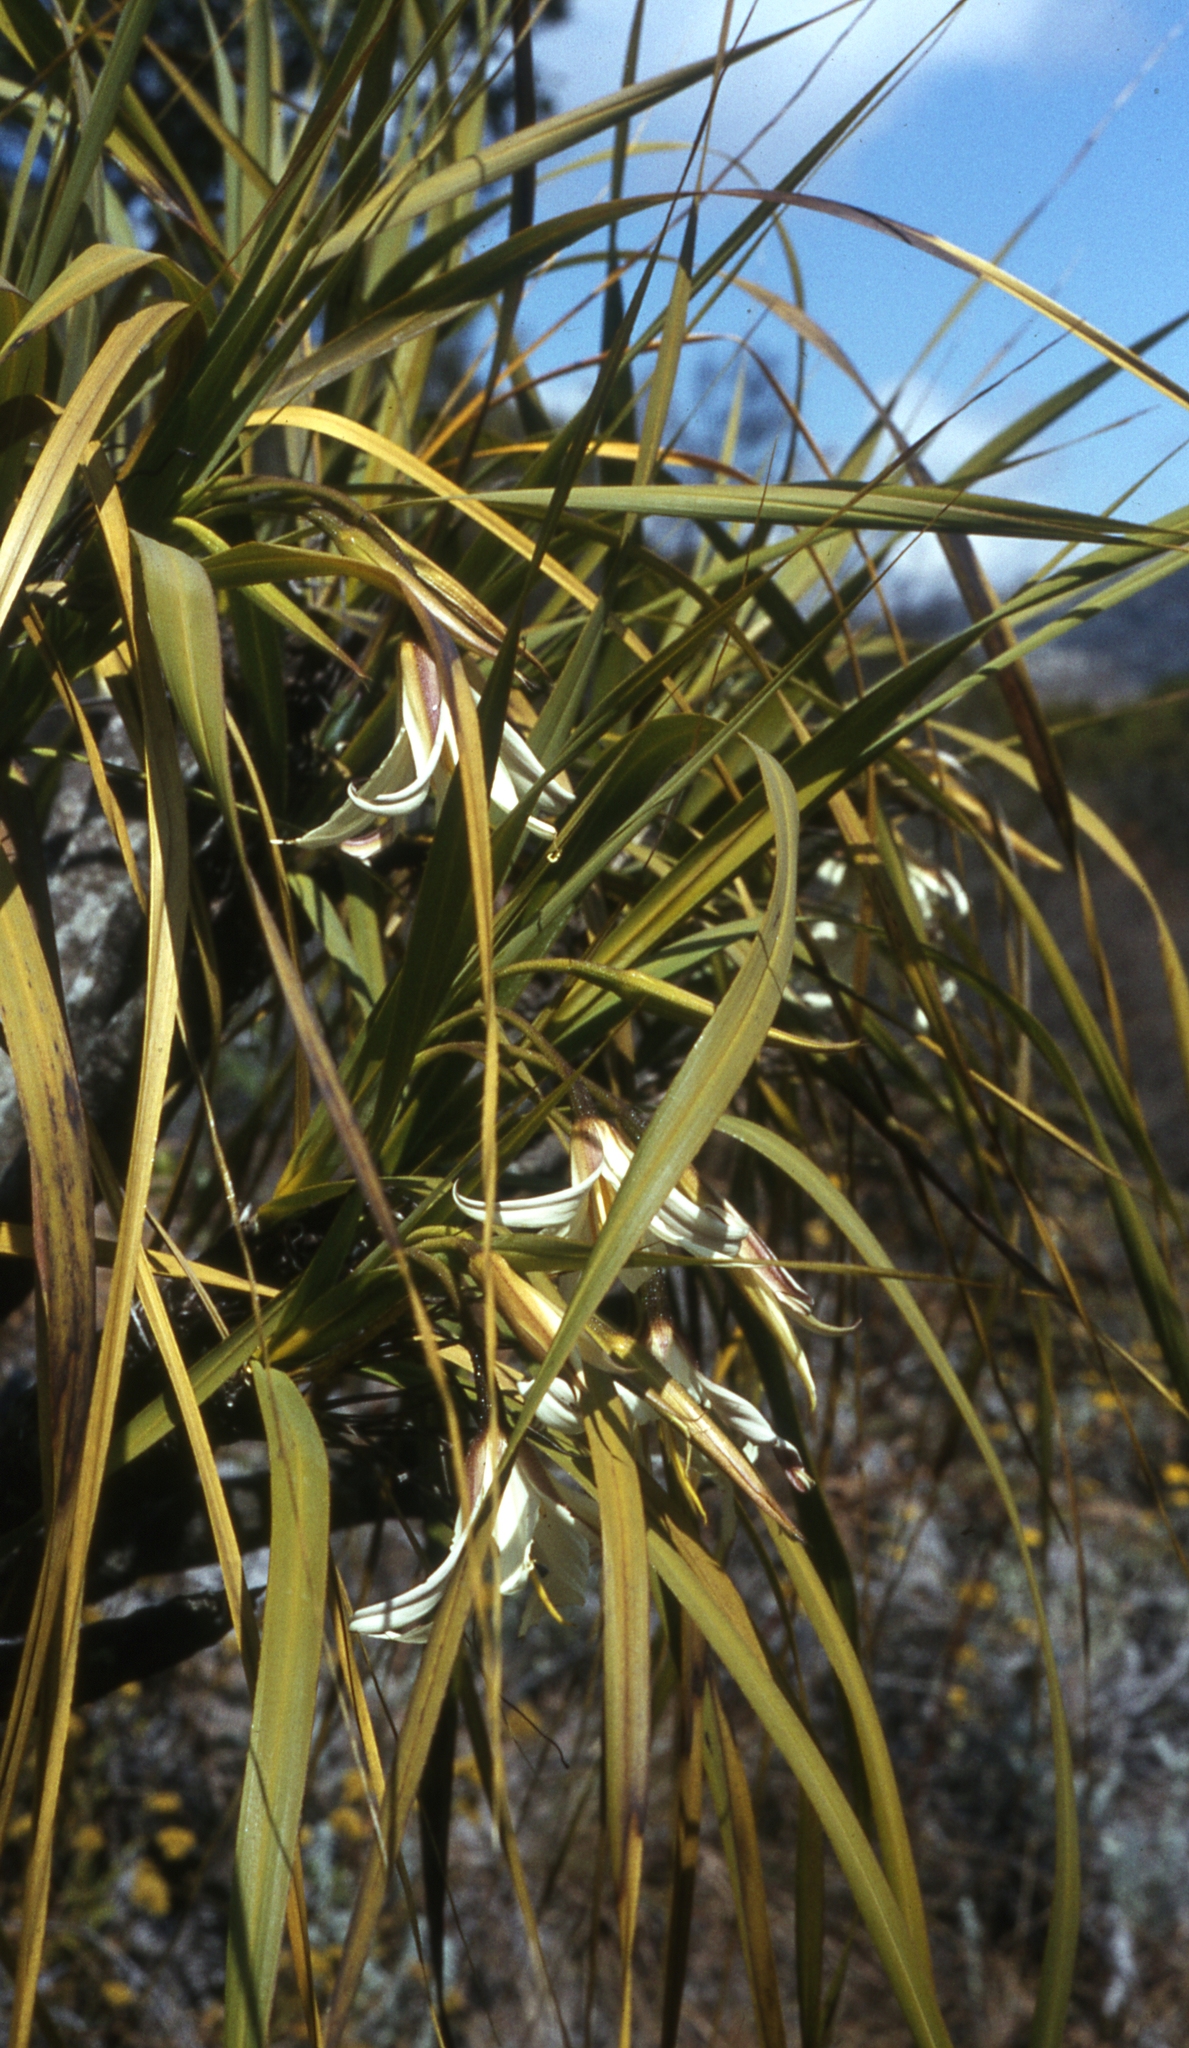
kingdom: Plantae
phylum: Tracheophyta
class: Liliopsida
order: Pandanales
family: Velloziaceae
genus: Xerophyta
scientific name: Xerophyta splendens
